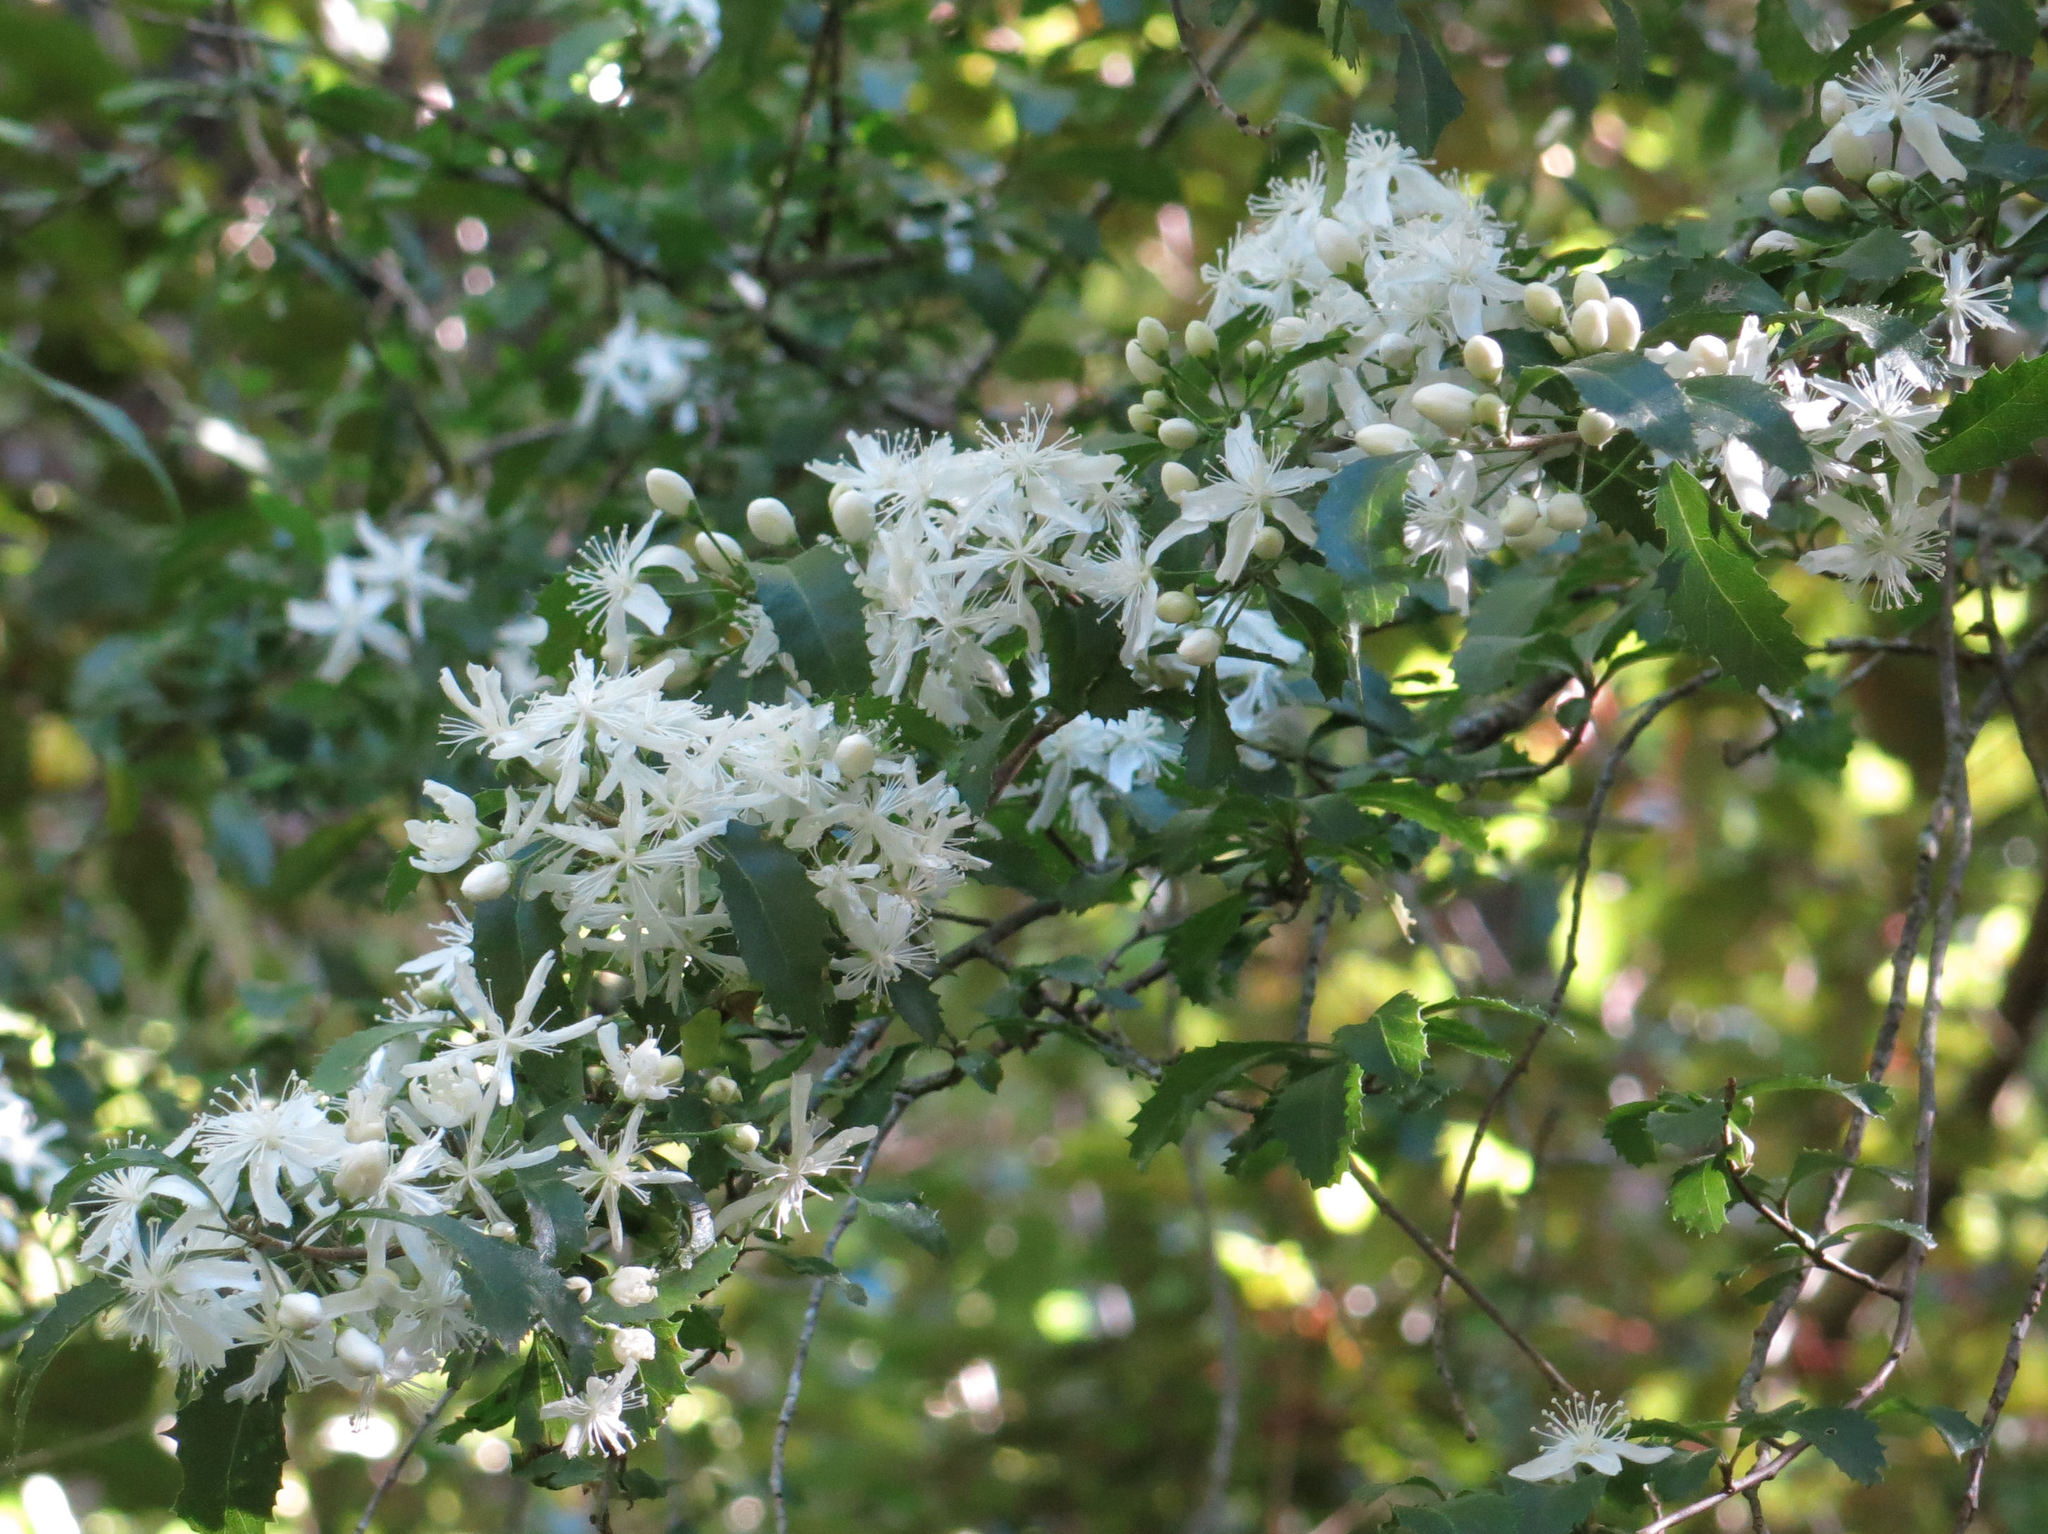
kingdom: Plantae
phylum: Tracheophyta
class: Magnoliopsida
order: Malvales
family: Malvaceae
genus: Hoheria
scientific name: Hoheria angustifolia
